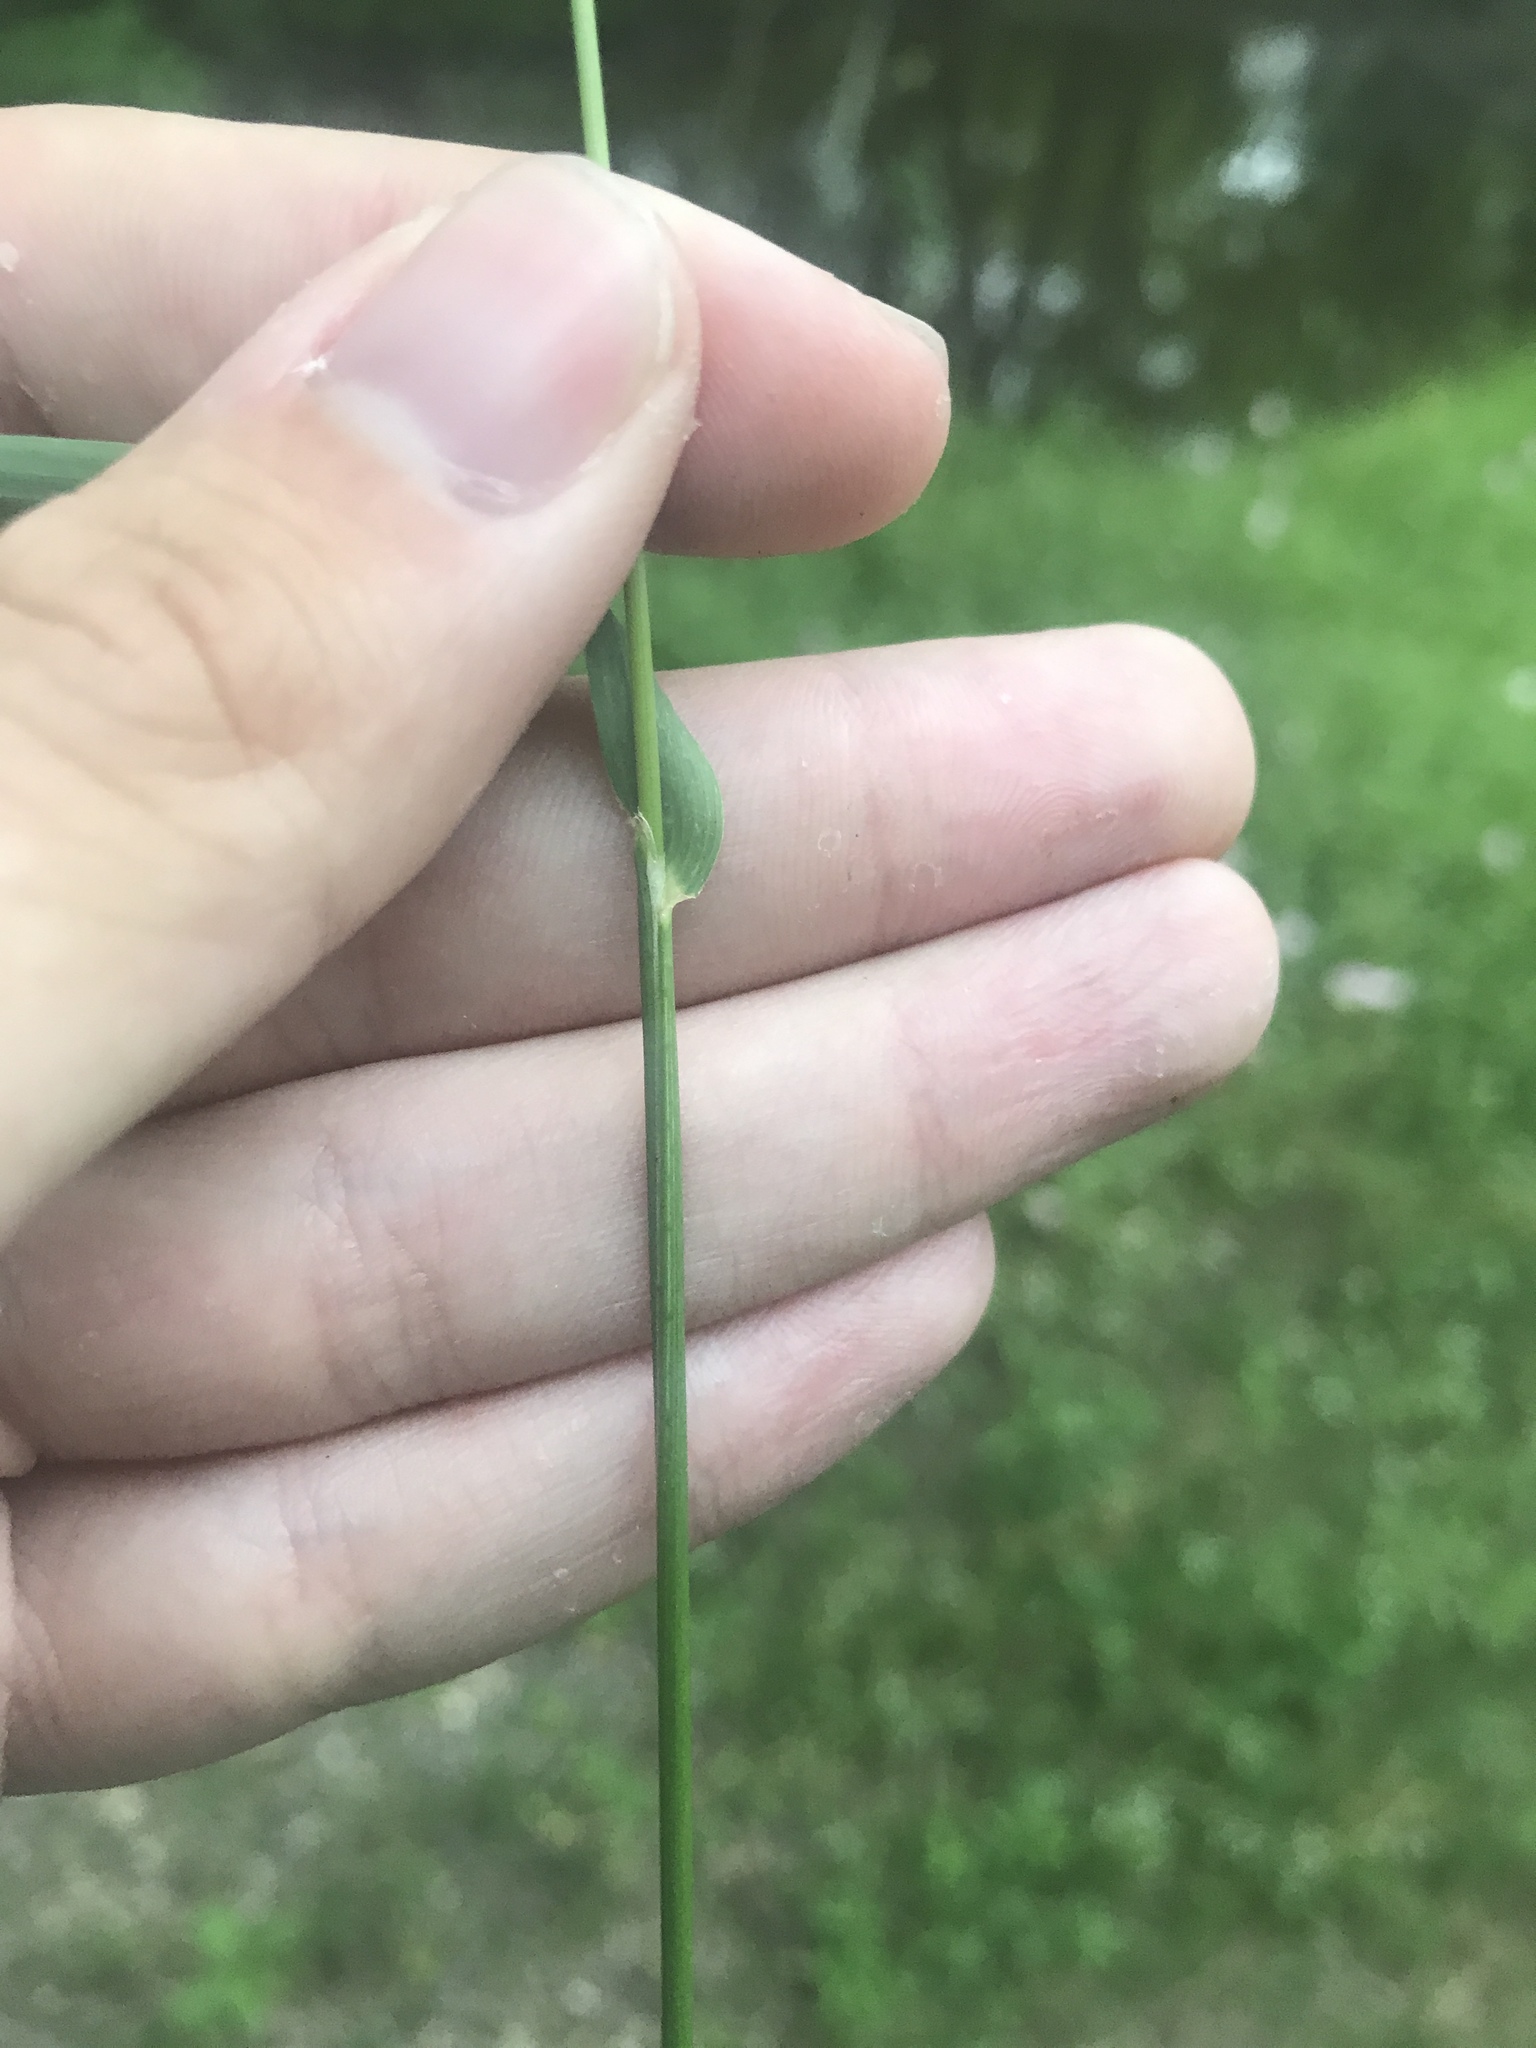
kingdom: Plantae
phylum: Tracheophyta
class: Liliopsida
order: Poales
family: Poaceae
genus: Sphenopholis
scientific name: Sphenopholis obtusata
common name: Prairie grass
